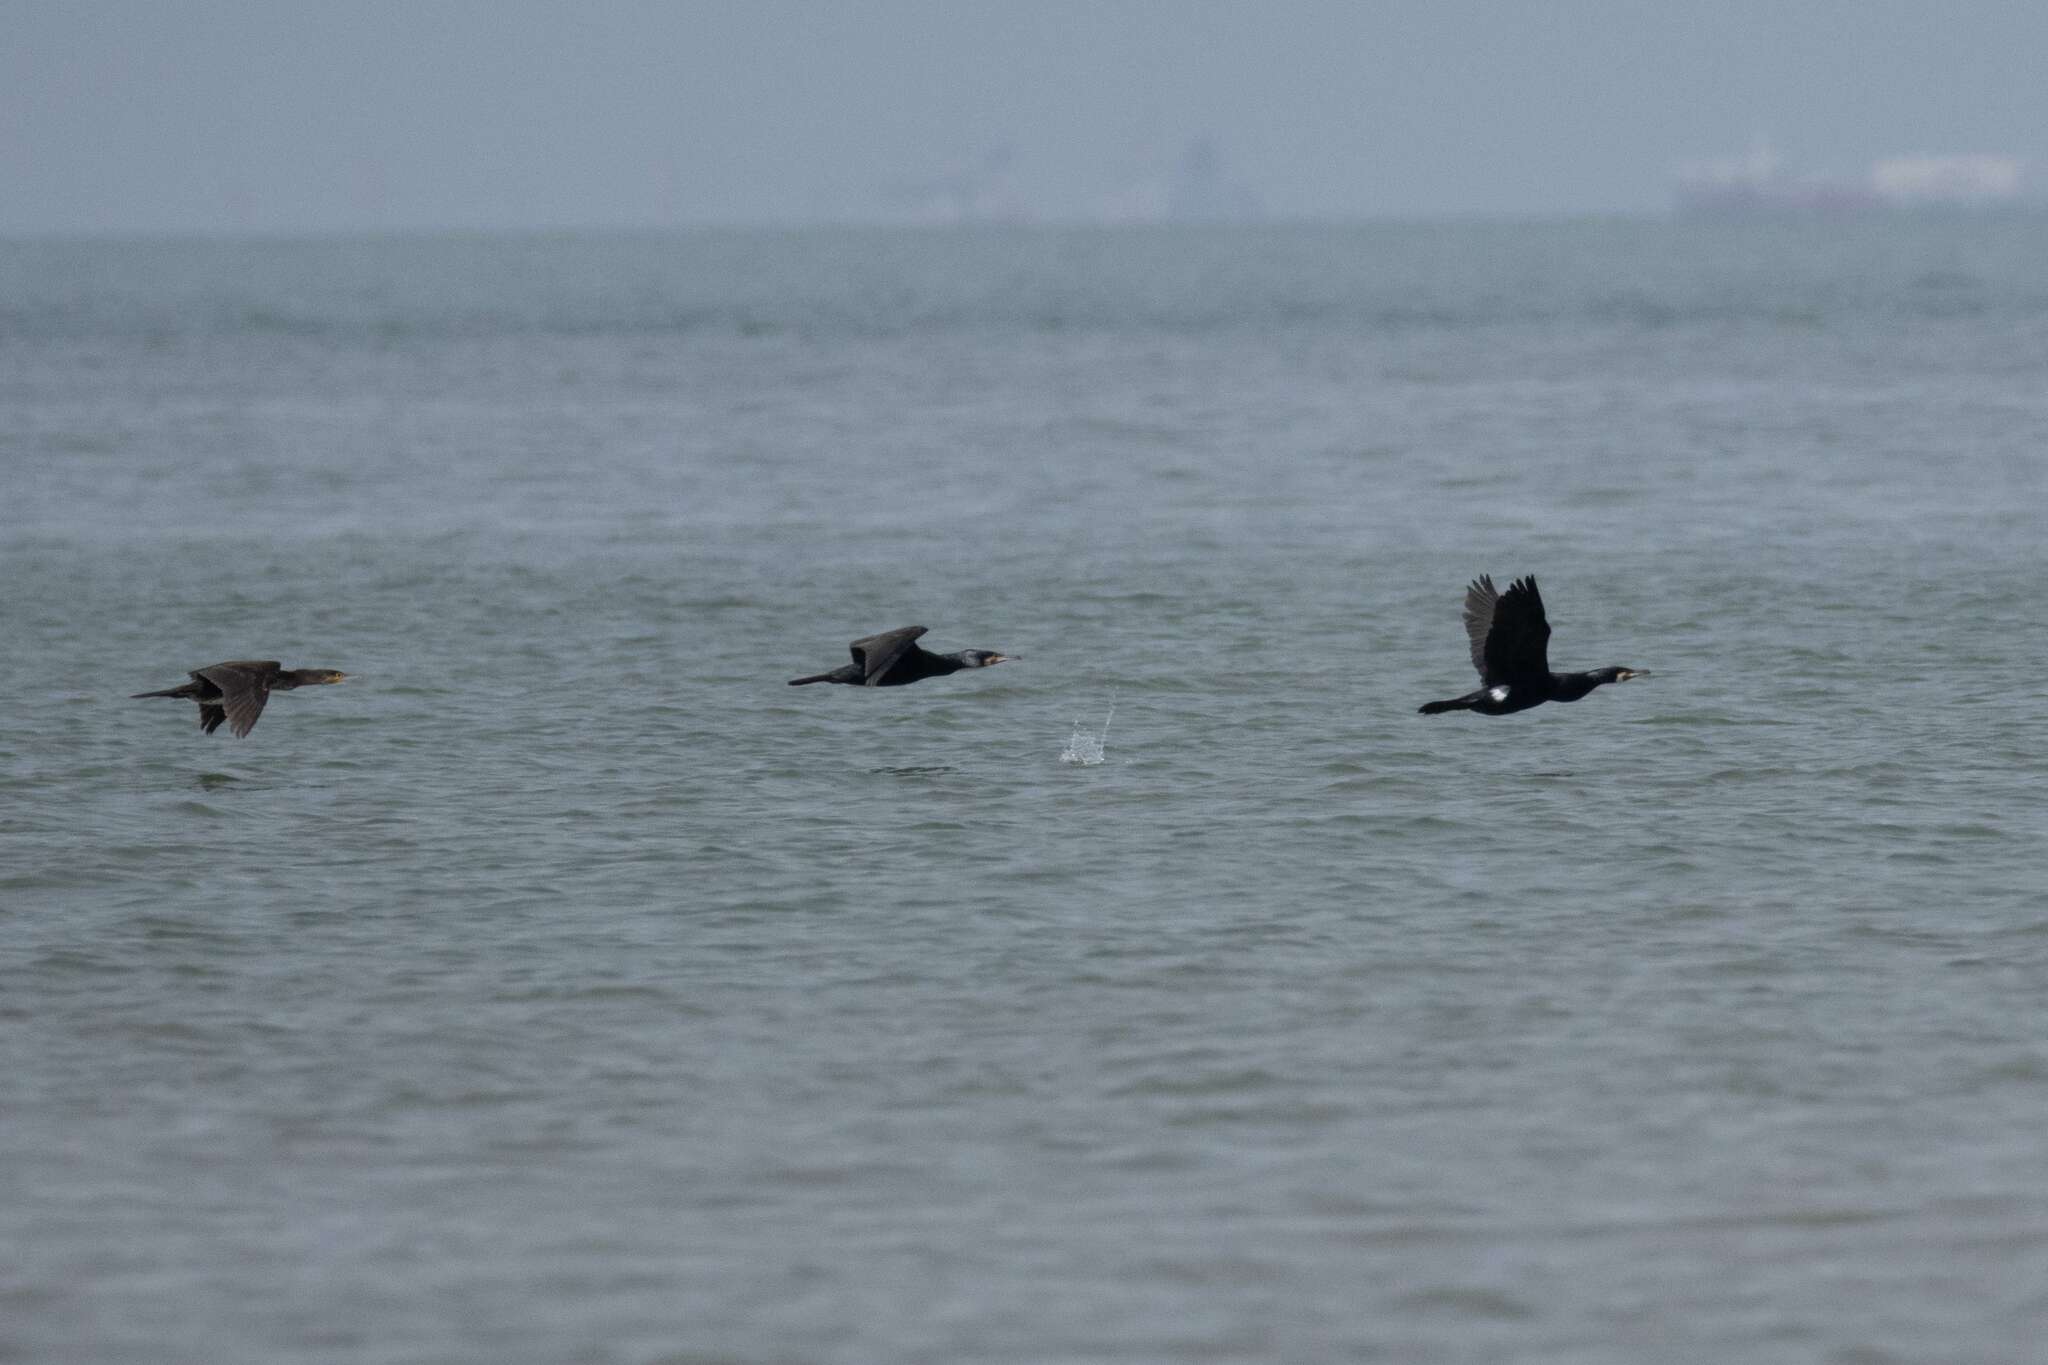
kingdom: Animalia
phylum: Chordata
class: Aves
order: Suliformes
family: Phalacrocoracidae
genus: Phalacrocorax
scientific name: Phalacrocorax carbo
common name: Great cormorant
